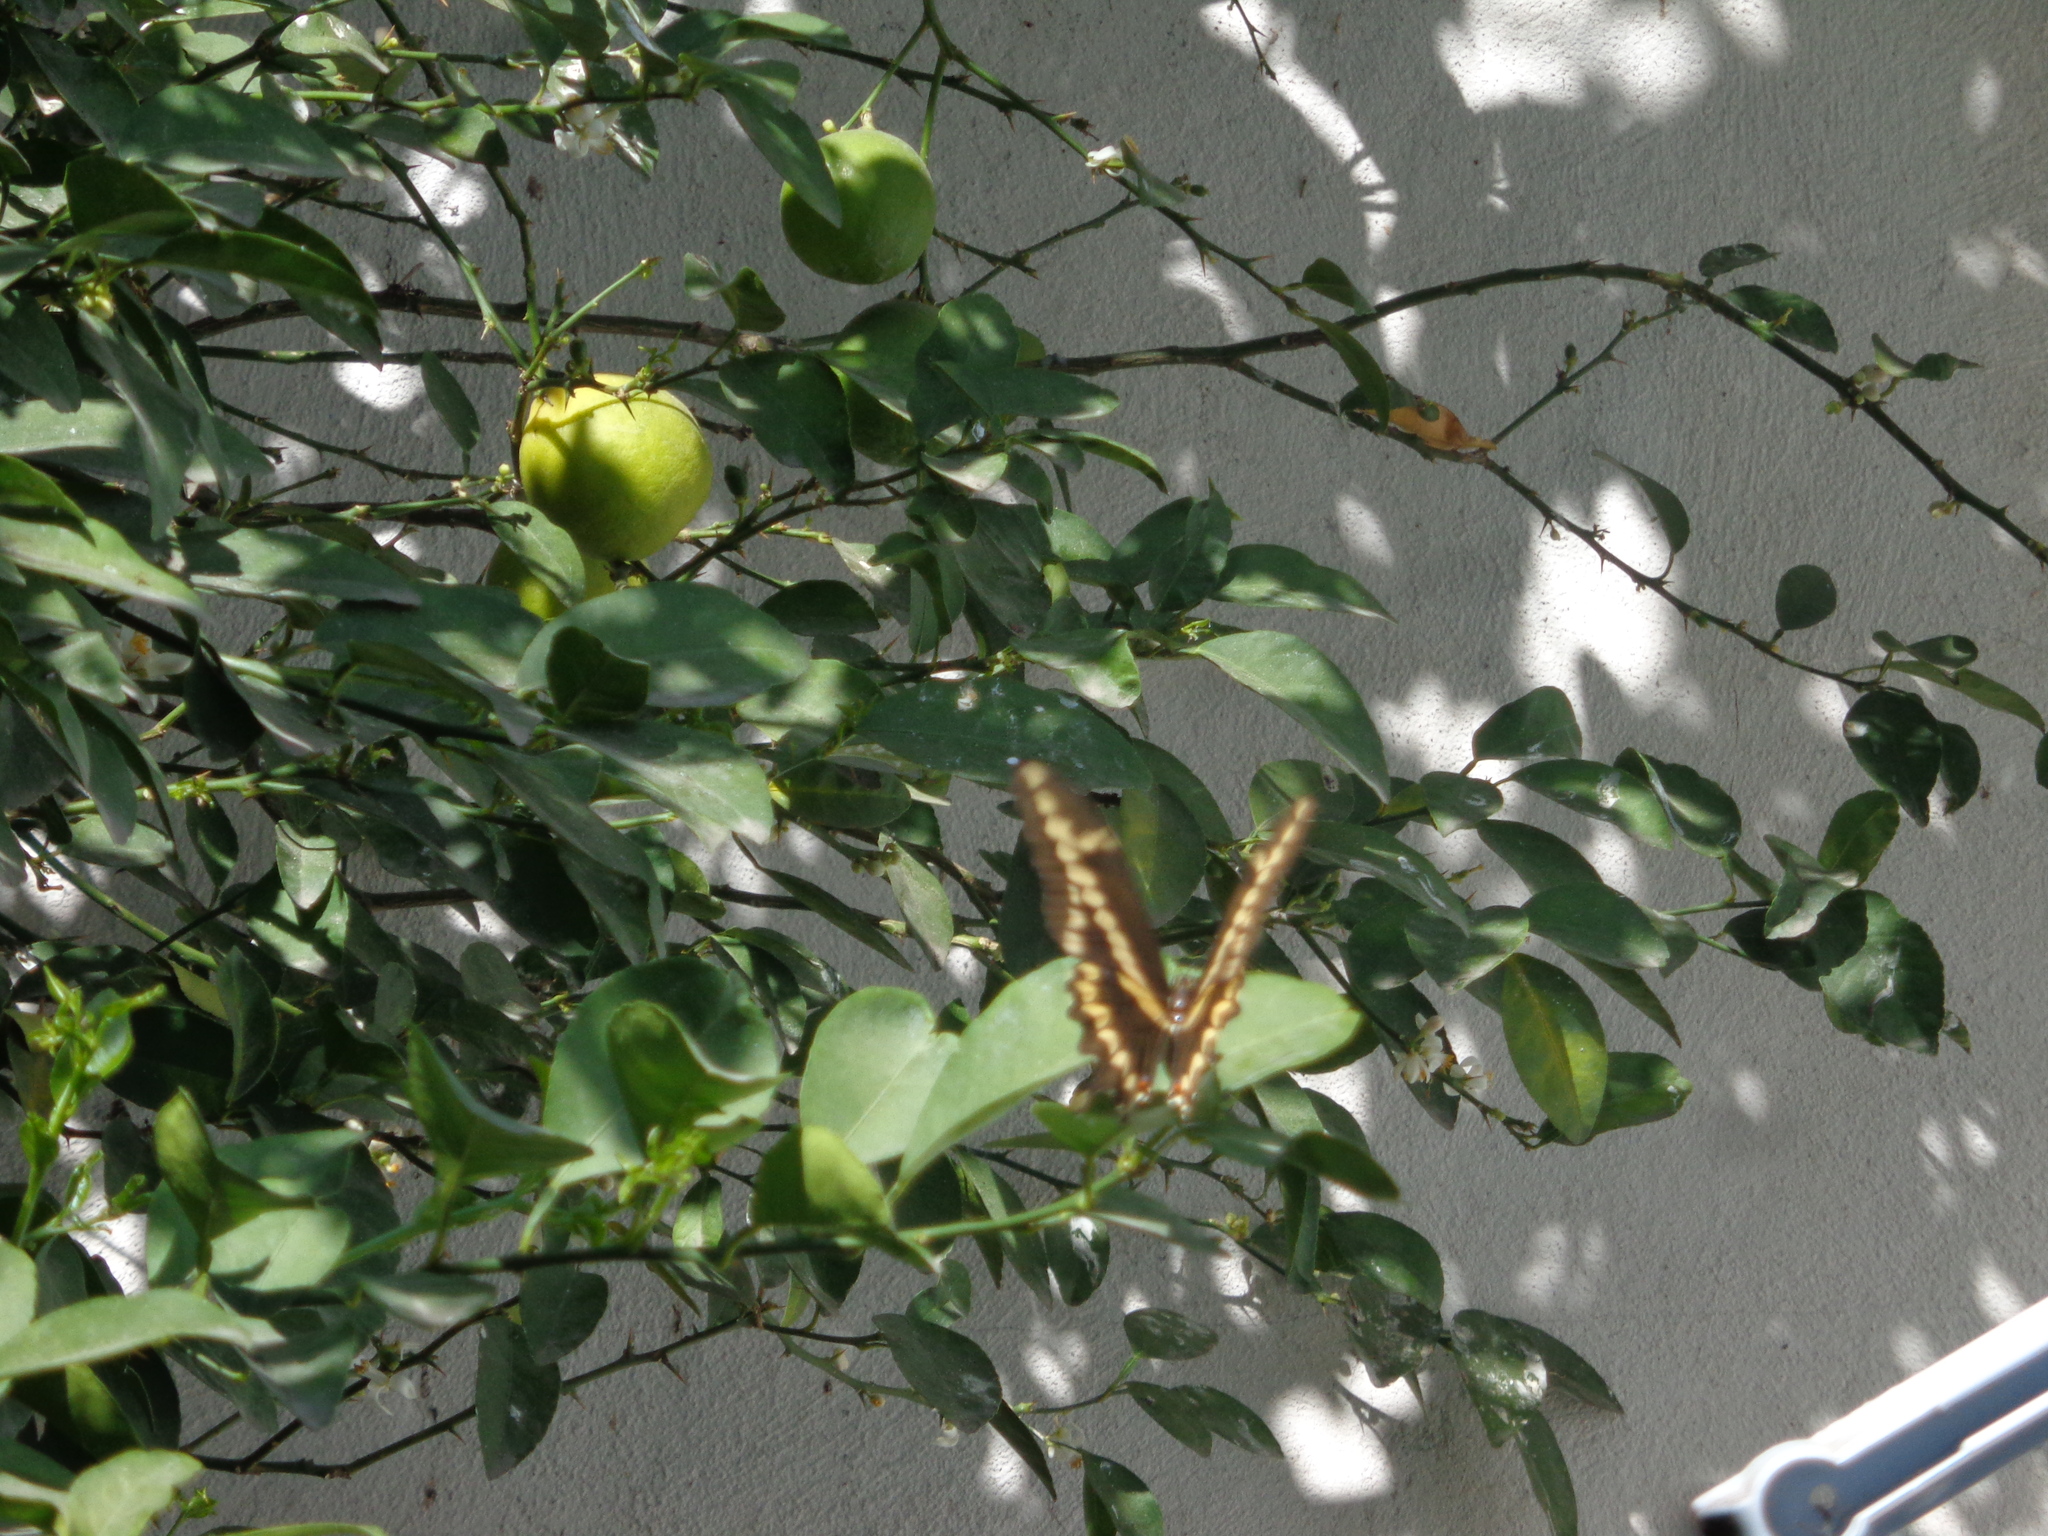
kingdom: Animalia
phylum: Arthropoda
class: Insecta
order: Lepidoptera
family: Papilionidae
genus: Papilio
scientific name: Papilio rumiko
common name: Western giant swallowtail
